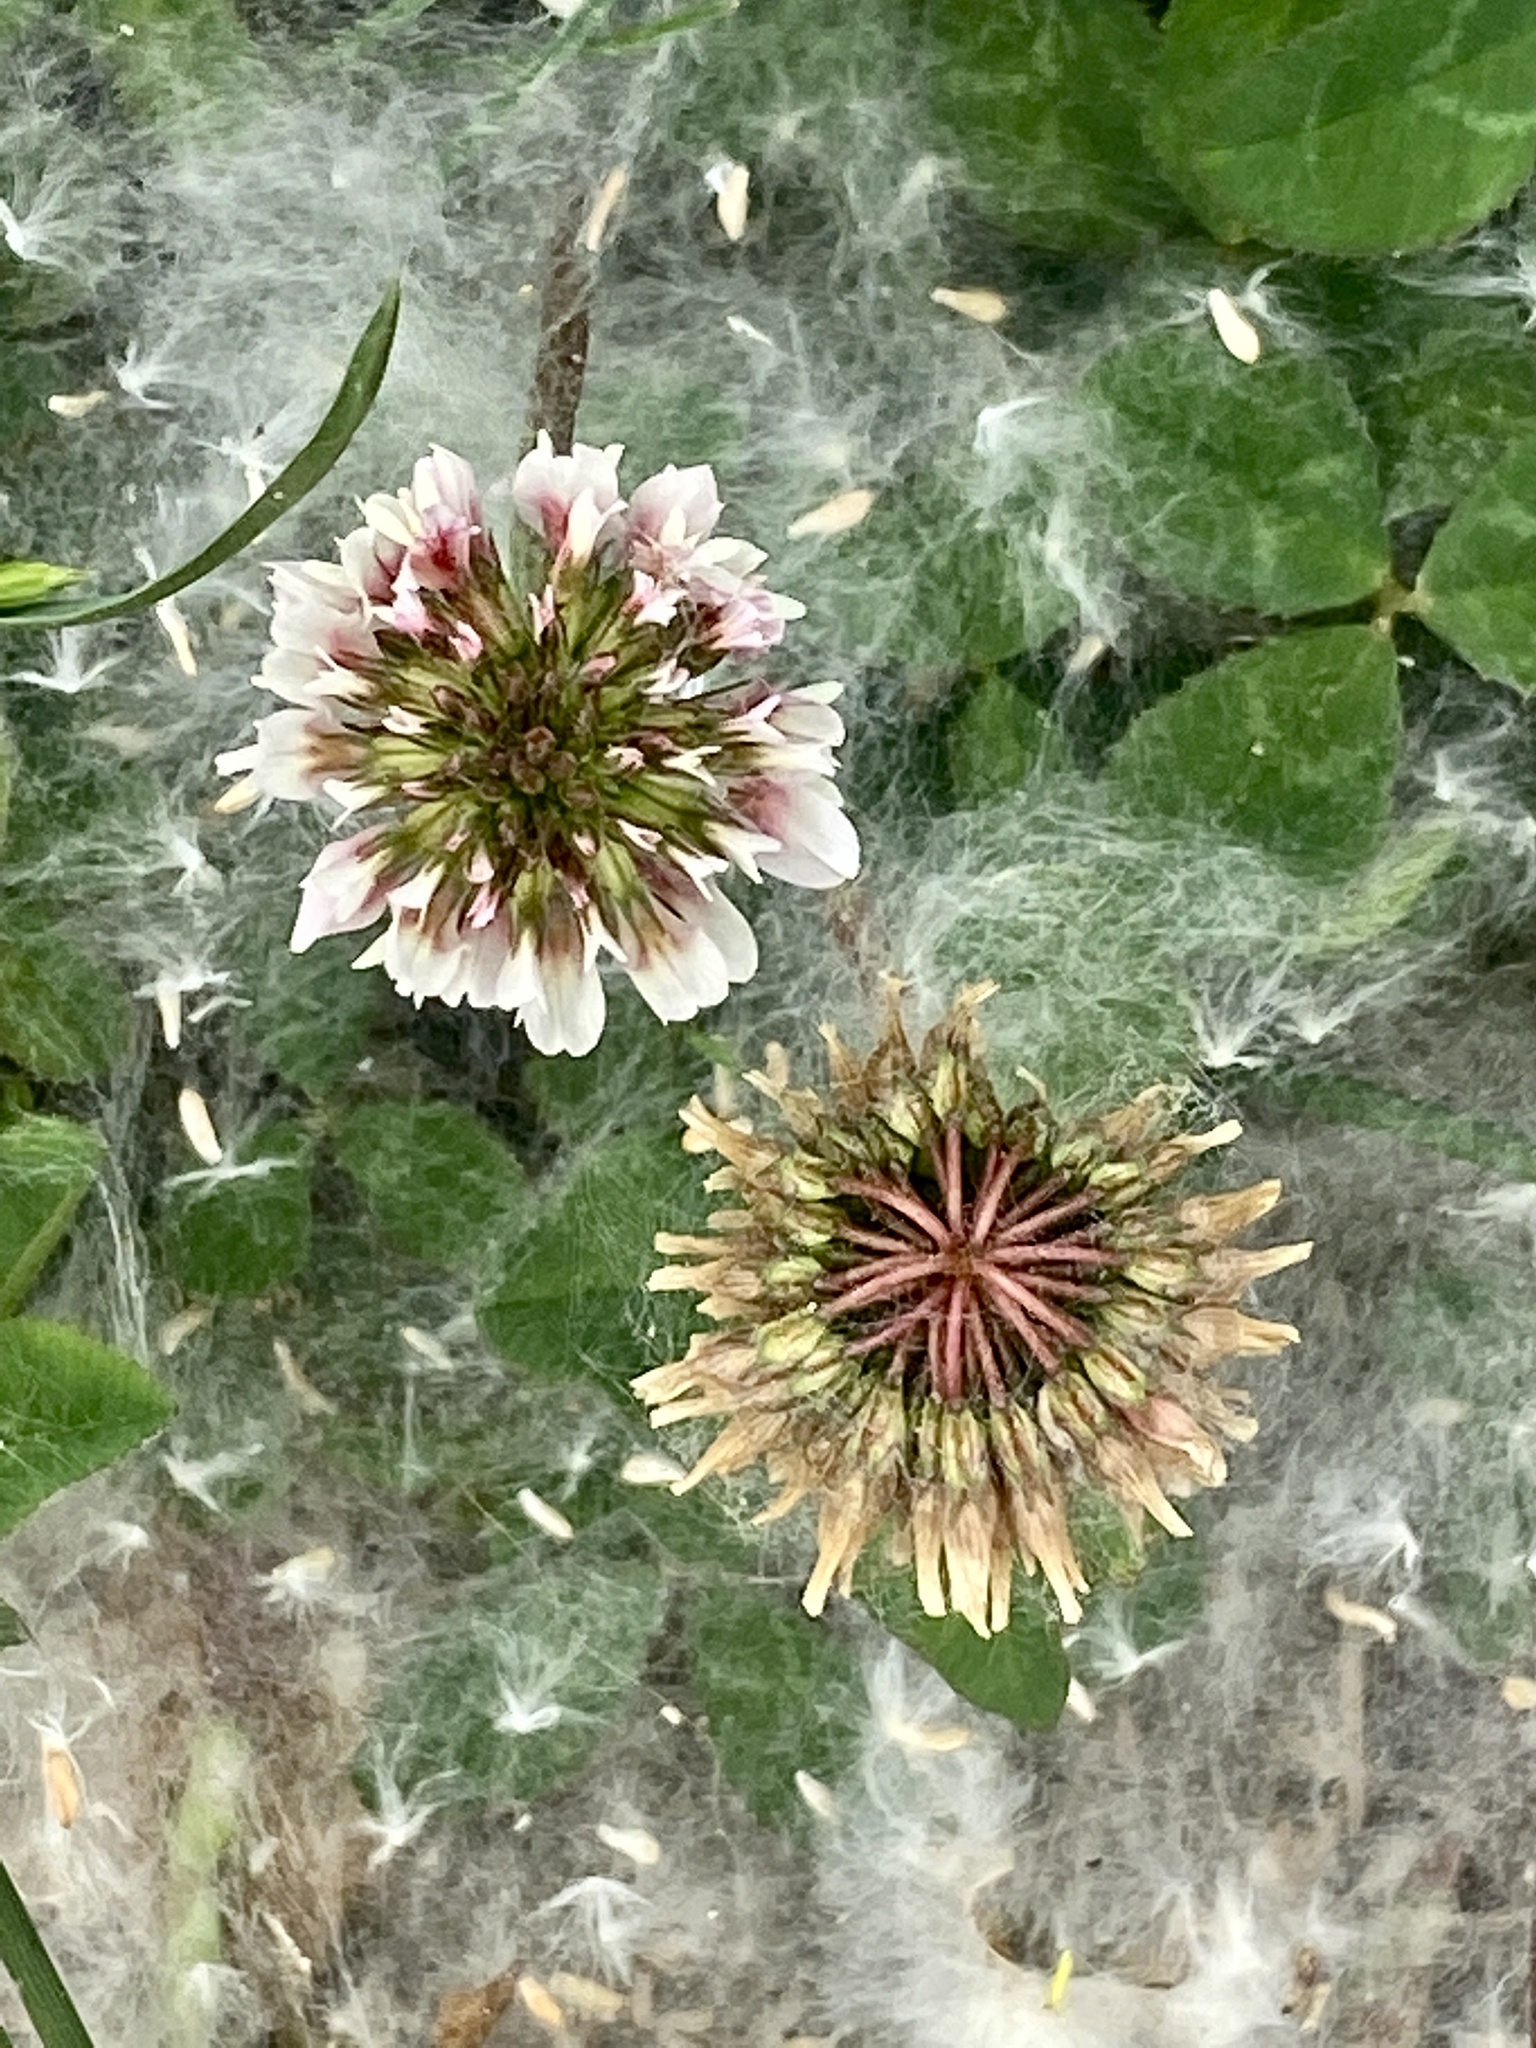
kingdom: Plantae
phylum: Tracheophyta
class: Magnoliopsida
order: Fabales
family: Fabaceae
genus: Trifolium
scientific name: Trifolium repens
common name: White clover
